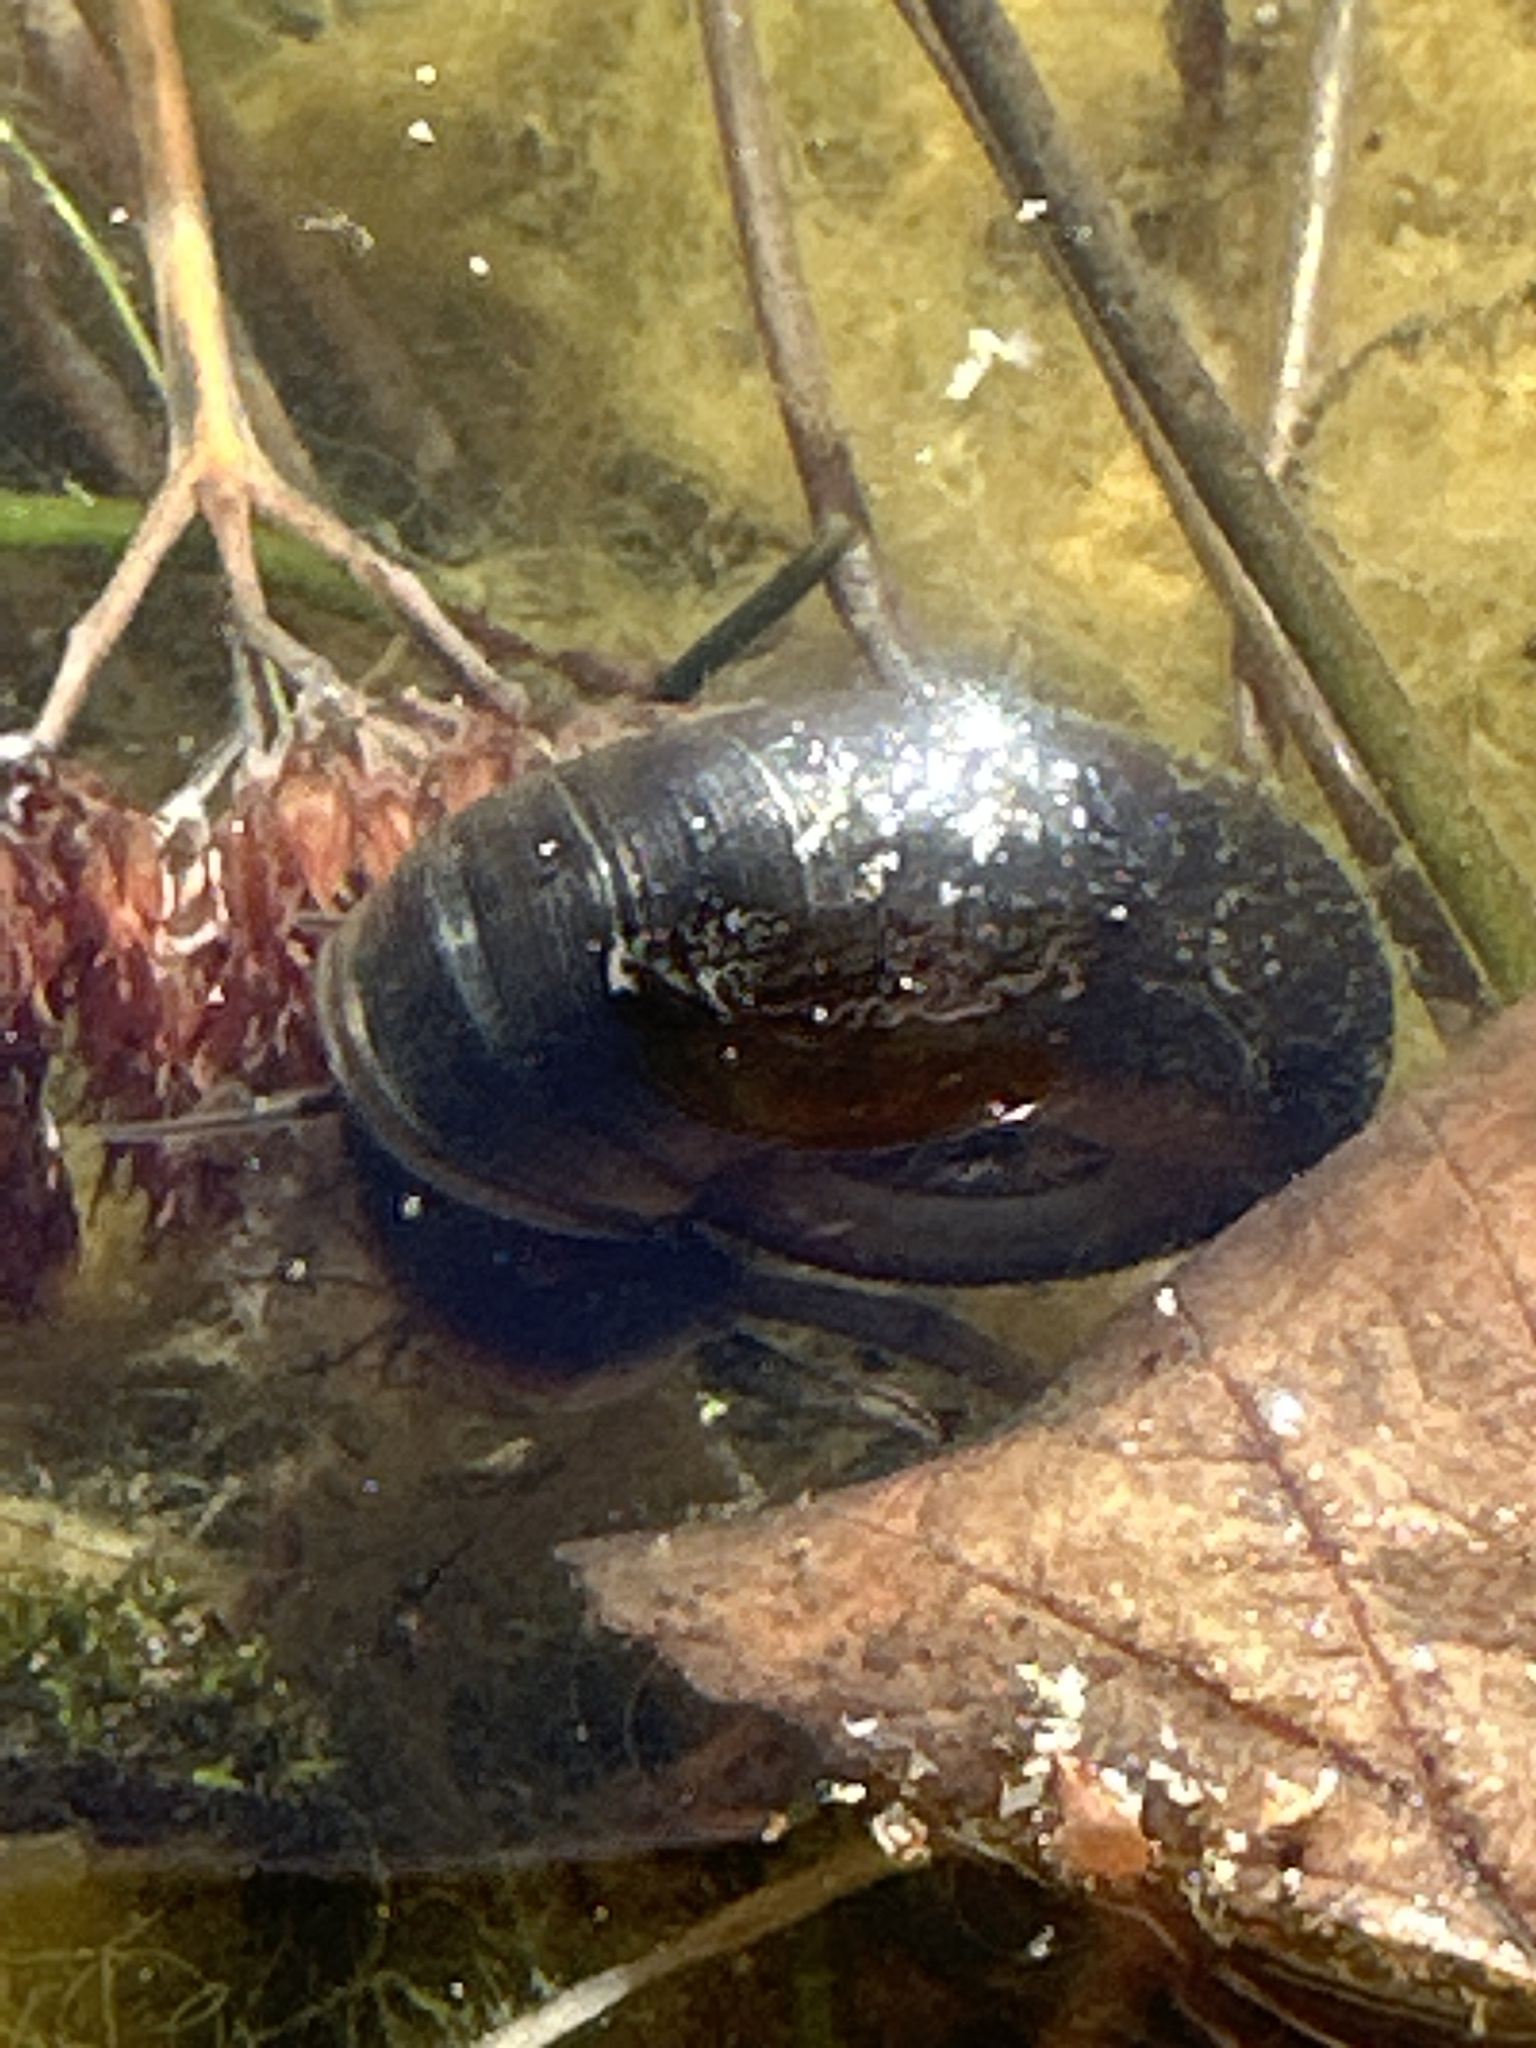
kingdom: Animalia
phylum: Mollusca
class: Gastropoda
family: Planorbidae
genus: Planorbarius
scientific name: Planorbarius corneus
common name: Great ramshorn
